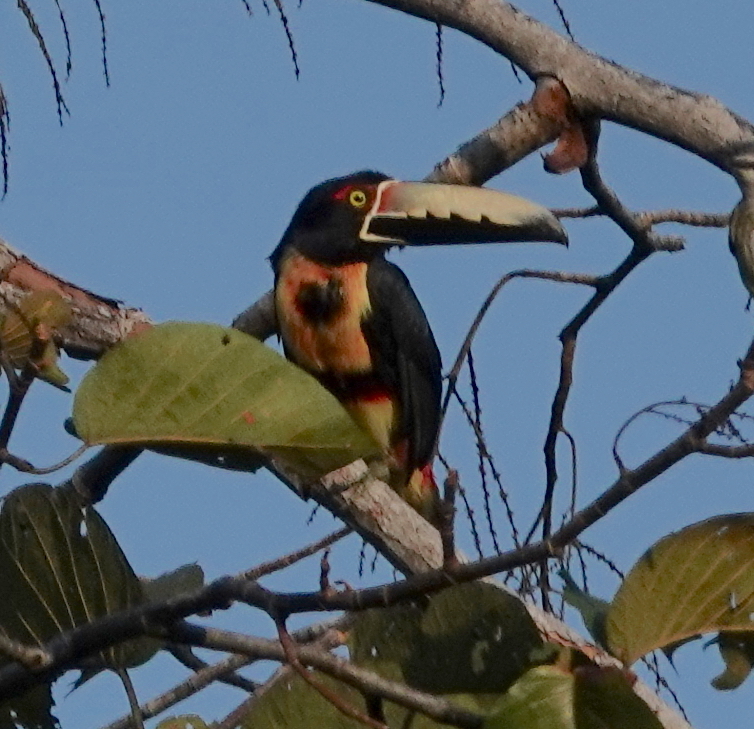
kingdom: Animalia
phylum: Chordata
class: Aves
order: Piciformes
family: Ramphastidae
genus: Pteroglossus
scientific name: Pteroglossus torquatus
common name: Collared aracari
